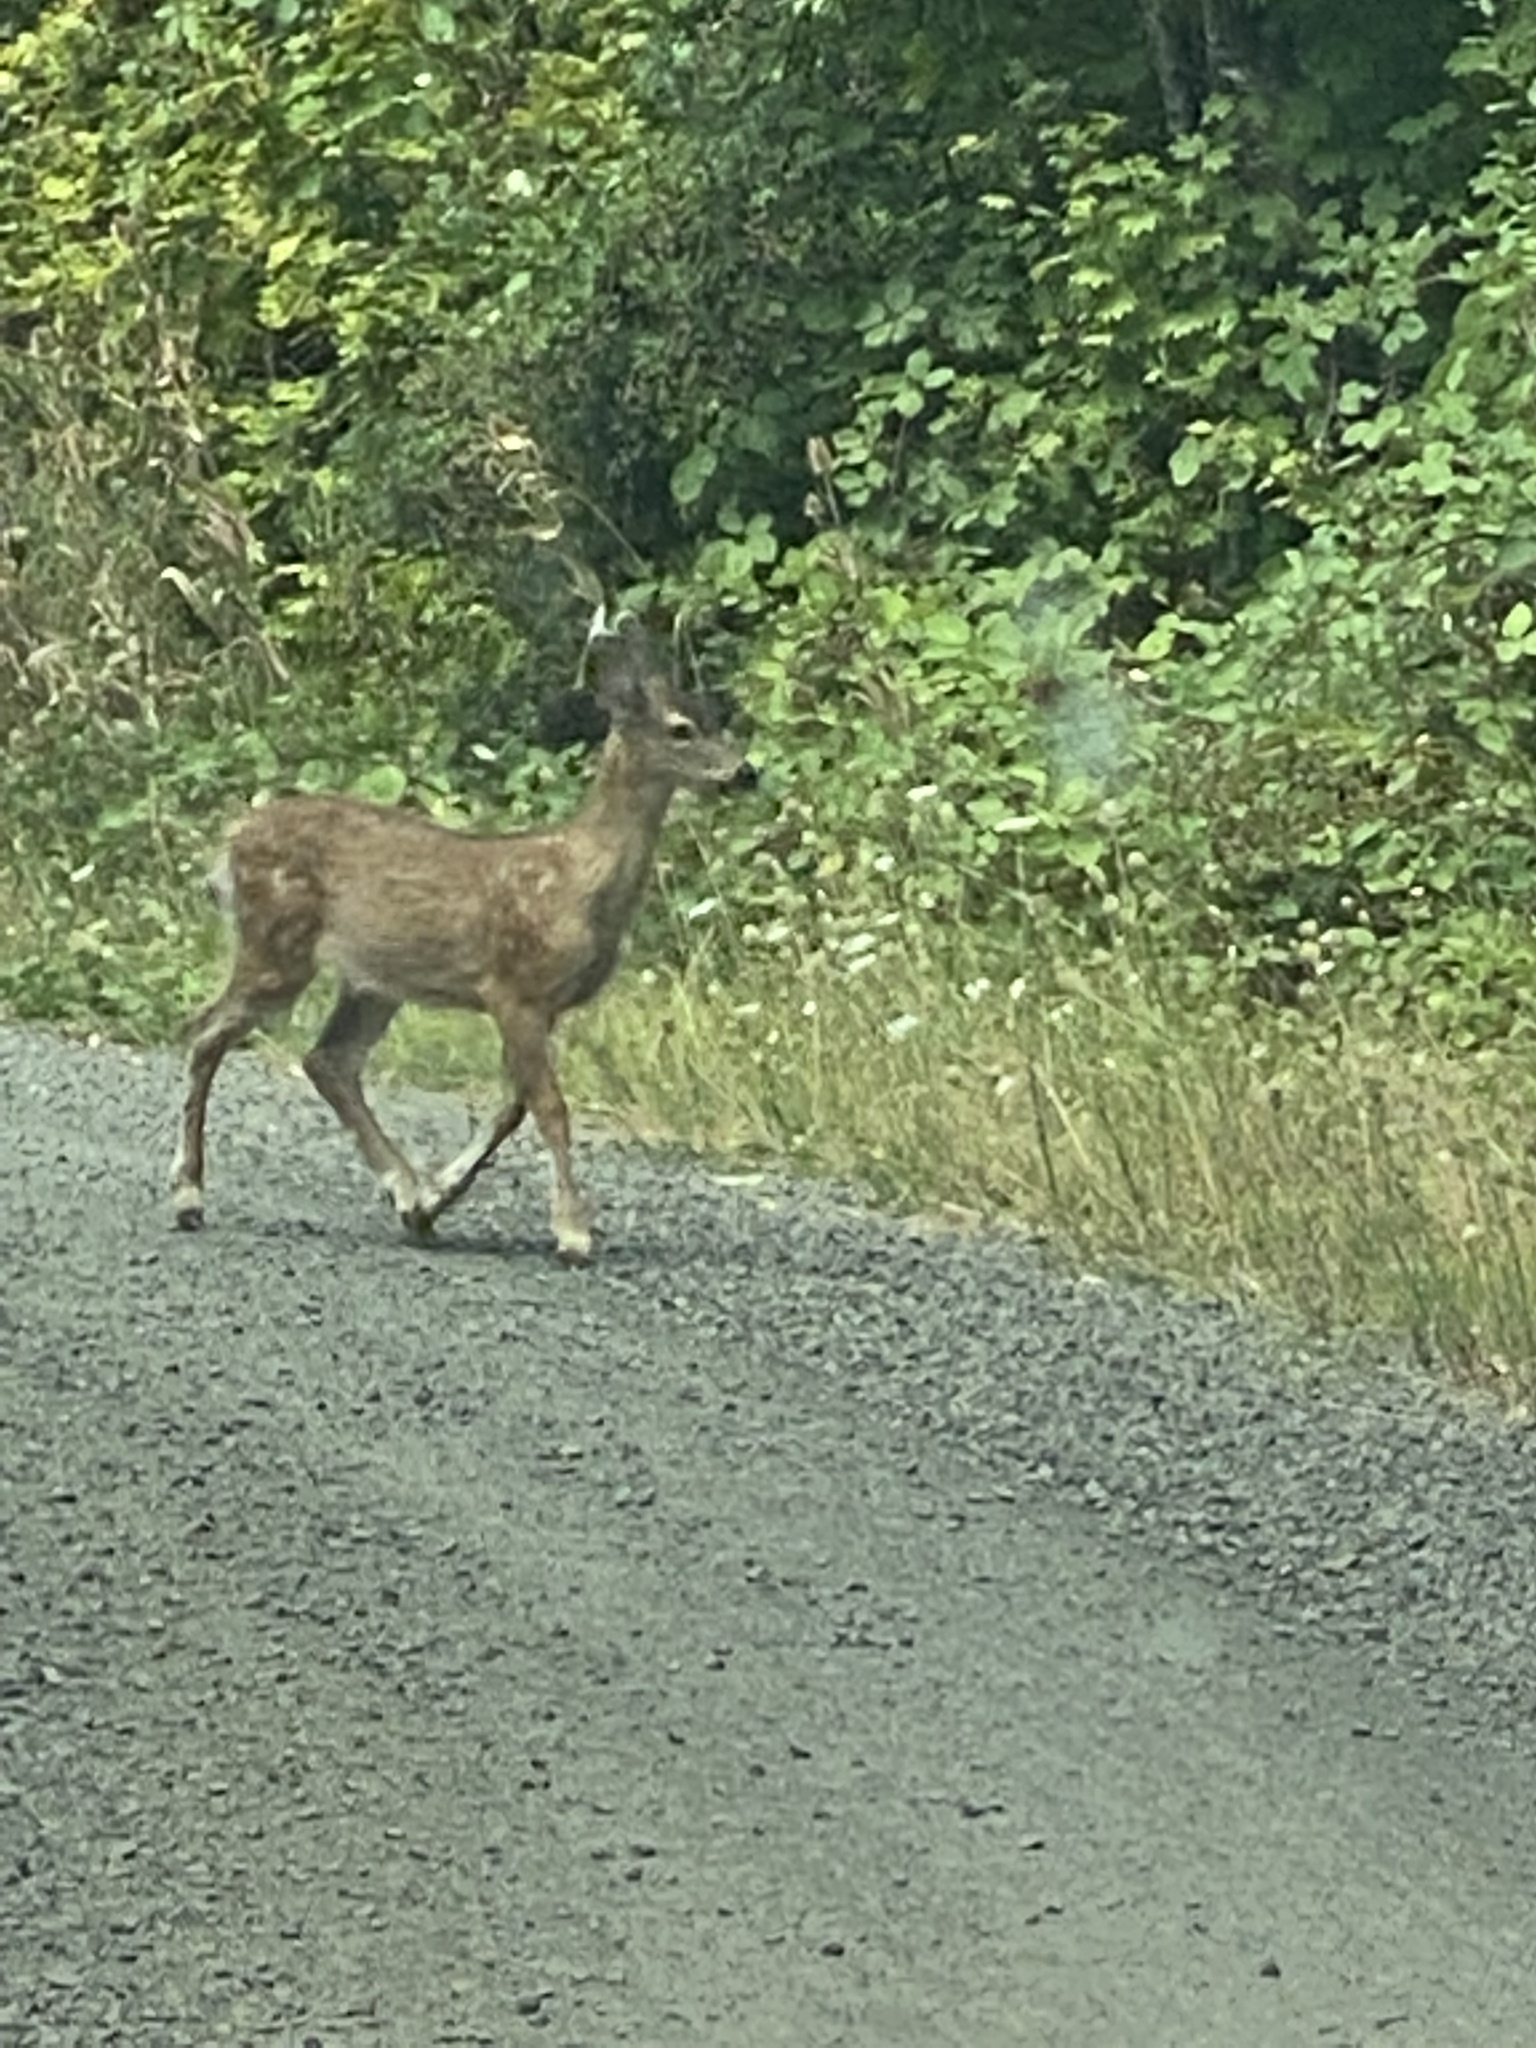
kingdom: Animalia
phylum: Chordata
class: Mammalia
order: Artiodactyla
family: Cervidae
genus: Odocoileus
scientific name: Odocoileus hemionus
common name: Mule deer
